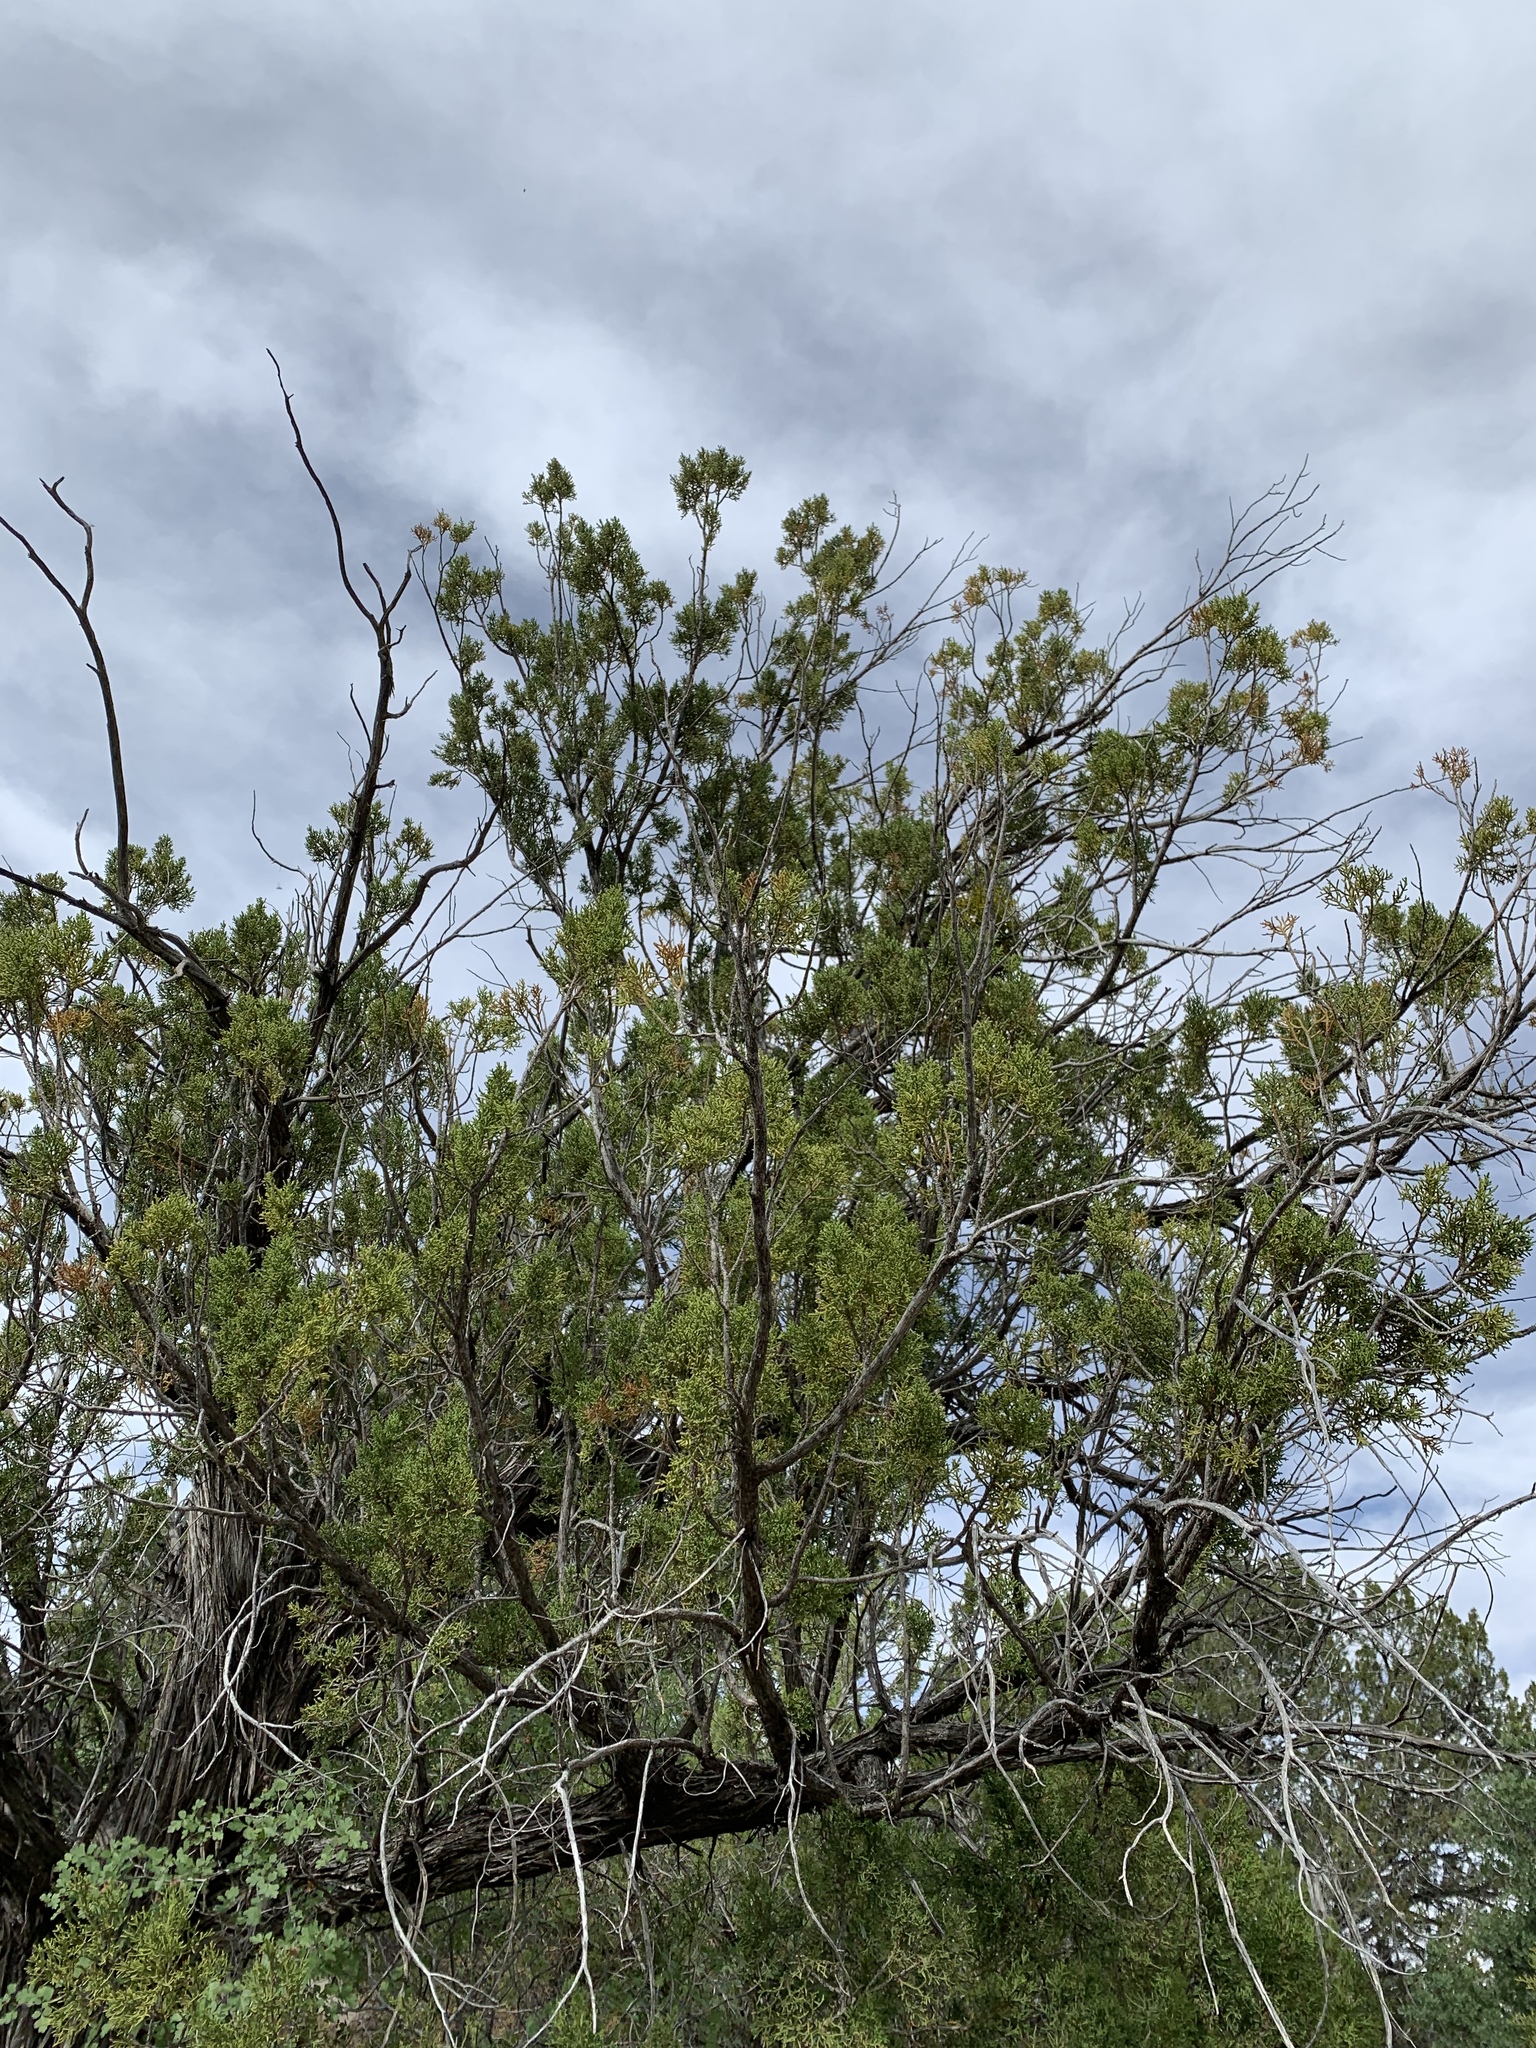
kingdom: Plantae
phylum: Tracheophyta
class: Pinopsida
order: Pinales
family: Cupressaceae
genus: Juniperus
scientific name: Juniperus monosperma
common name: One-seed juniper
